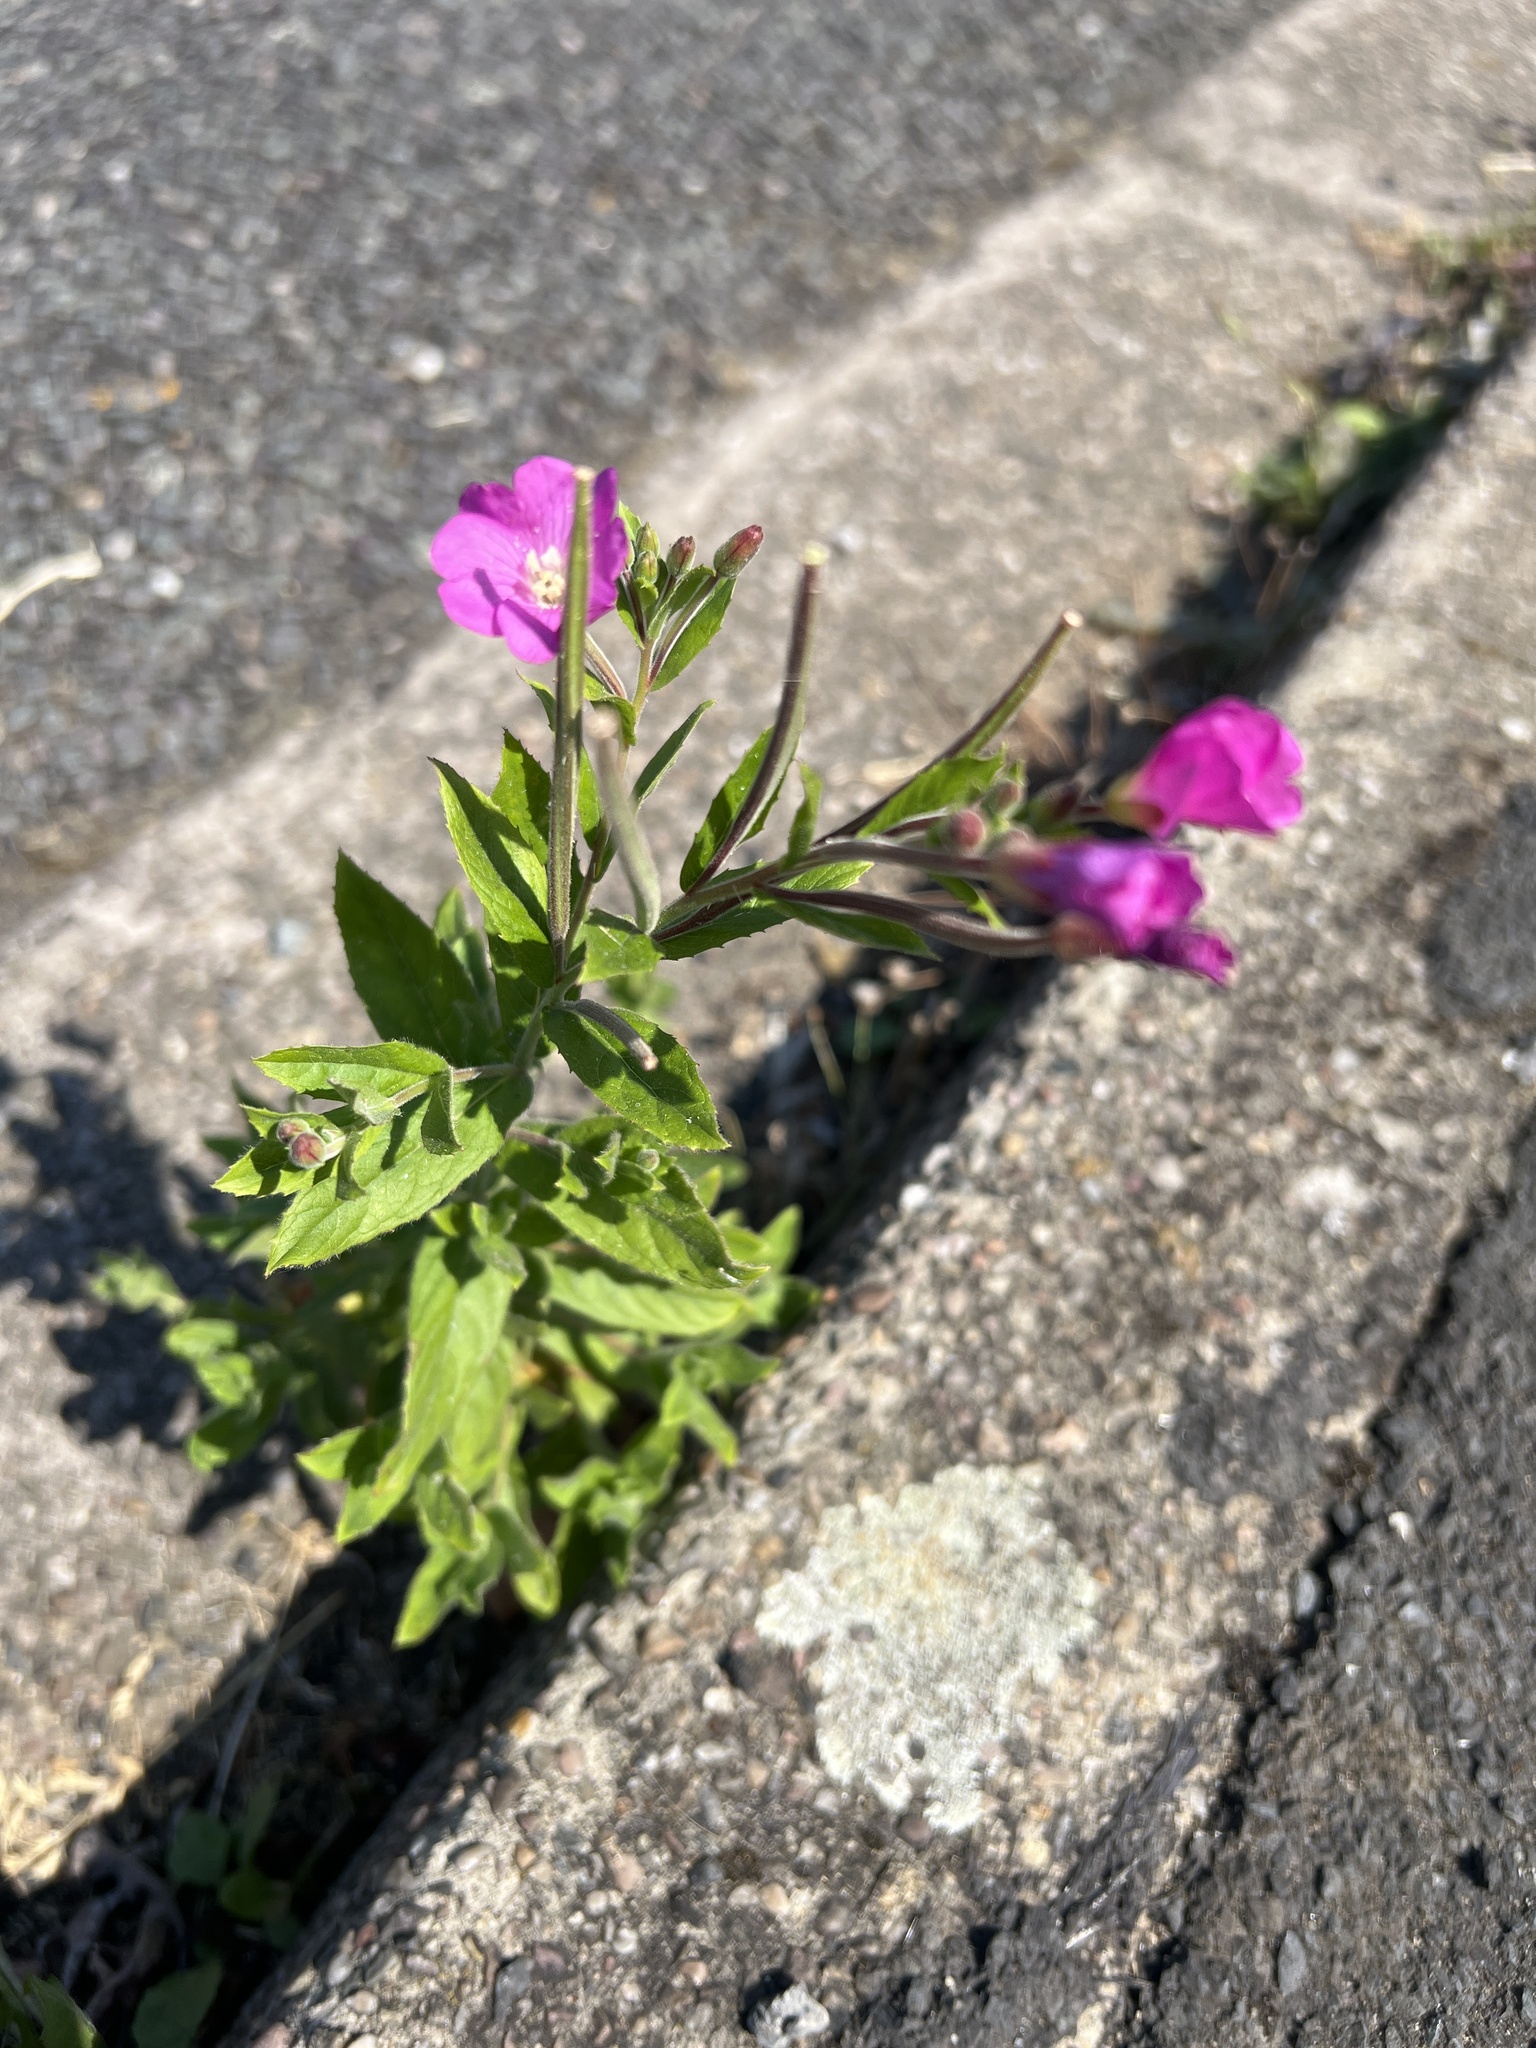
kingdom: Plantae
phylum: Tracheophyta
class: Magnoliopsida
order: Myrtales
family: Onagraceae
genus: Epilobium
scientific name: Epilobium hirsutum
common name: Great willowherb
